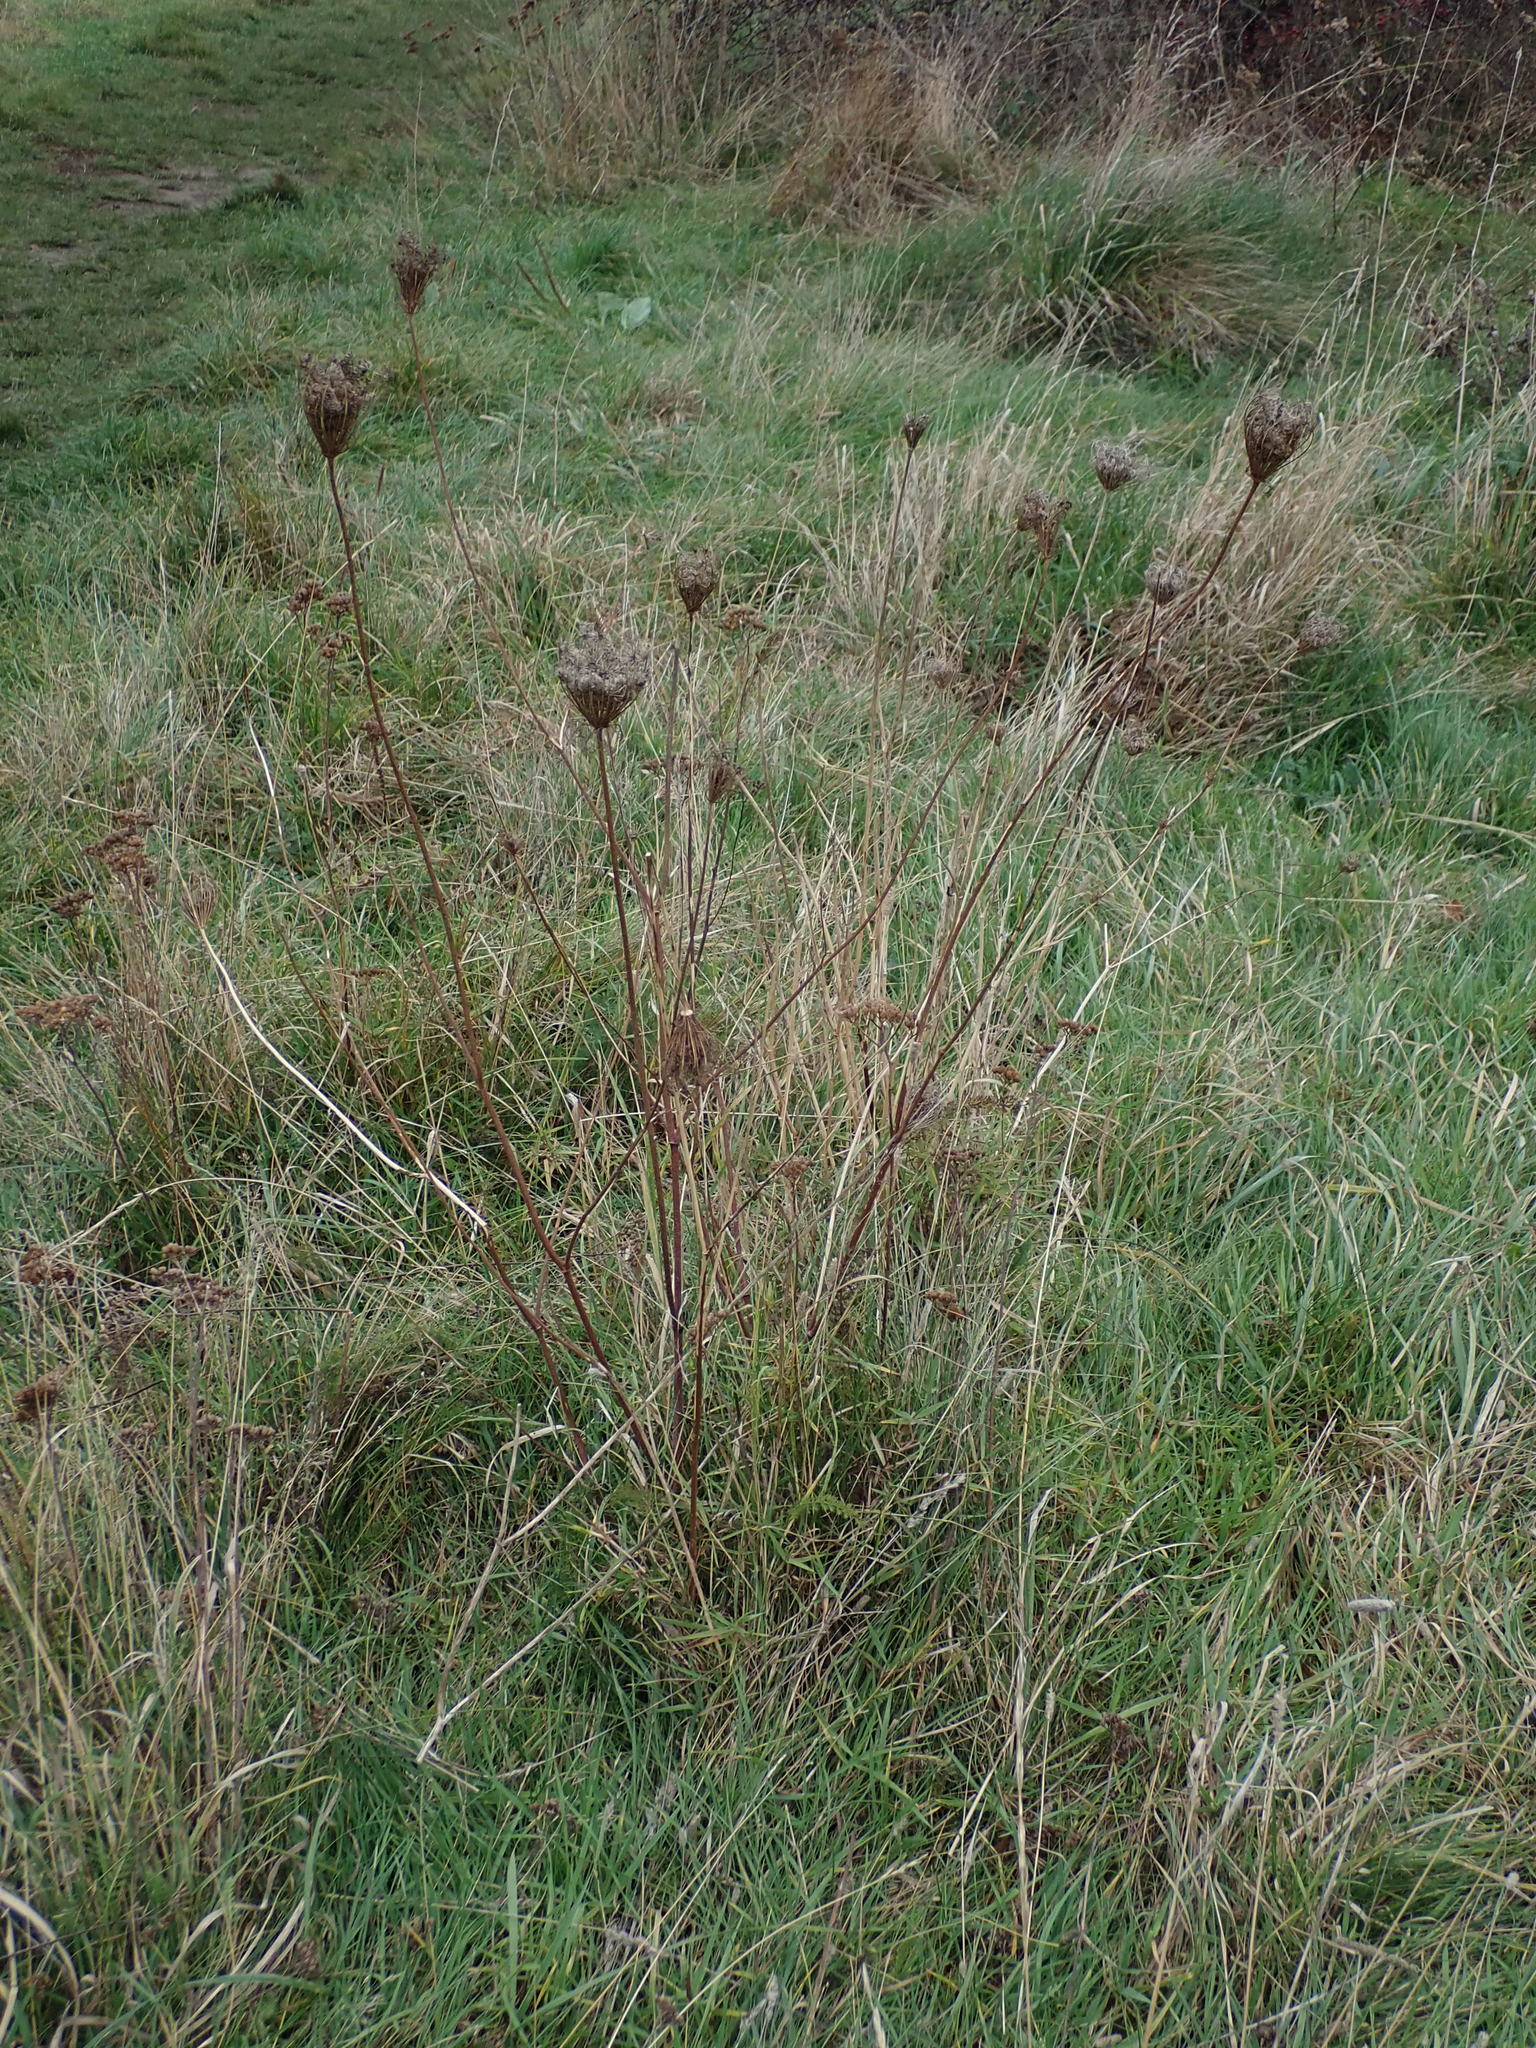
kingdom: Plantae
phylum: Tracheophyta
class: Magnoliopsida
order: Apiales
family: Apiaceae
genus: Daucus
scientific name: Daucus carota
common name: Wild carrot
